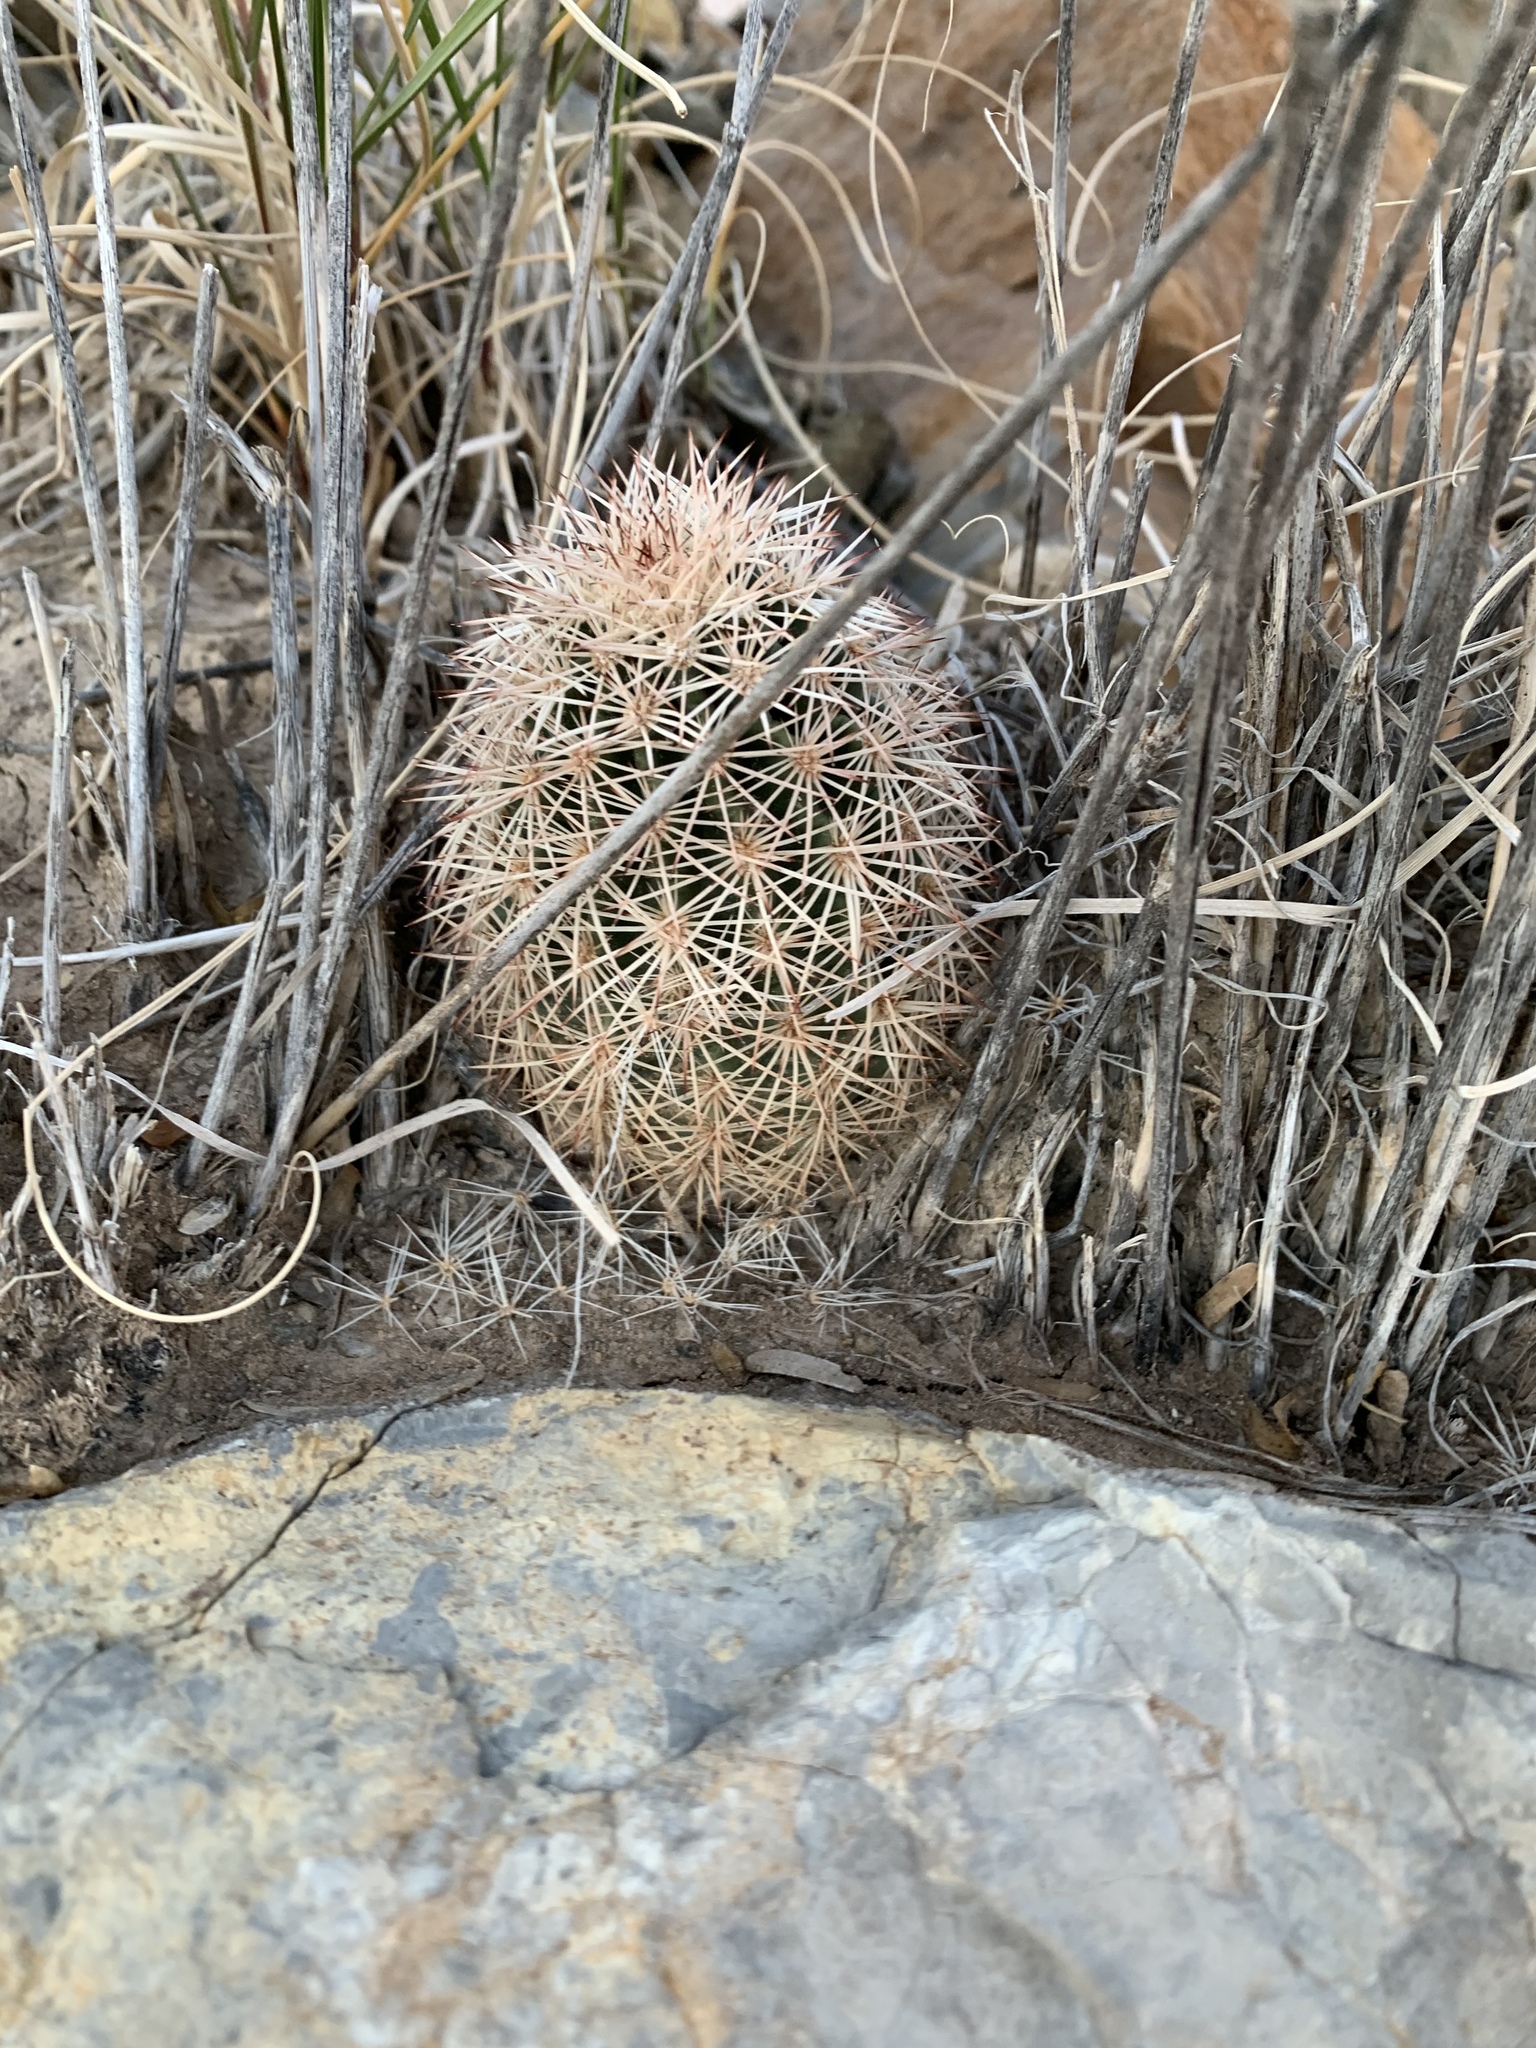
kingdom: Plantae
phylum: Tracheophyta
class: Magnoliopsida
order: Caryophyllales
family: Cactaceae
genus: Echinocereus
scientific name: Echinocereus dasyacanthus
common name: Spiny hedgehog cactus
